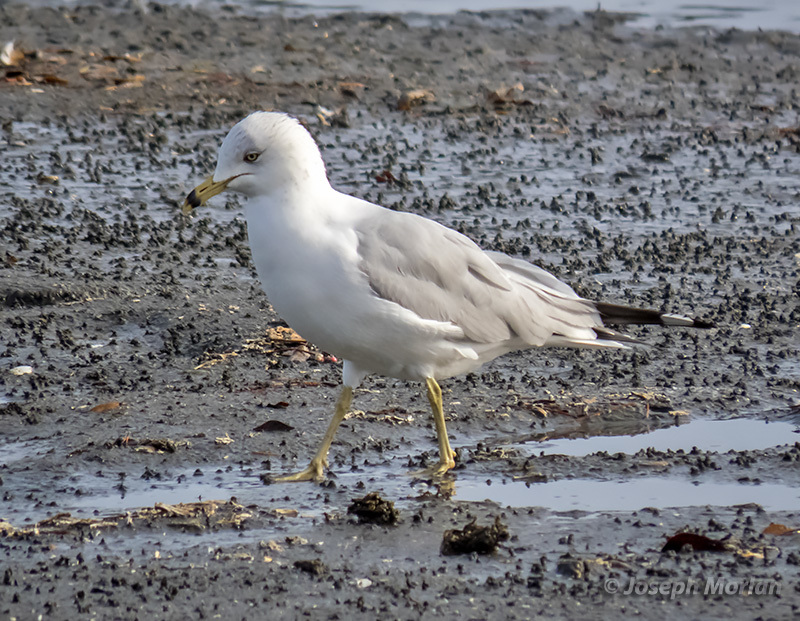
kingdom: Animalia
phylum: Chordata
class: Aves
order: Charadriiformes
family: Laridae
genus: Larus
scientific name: Larus delawarensis
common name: Ring-billed gull
